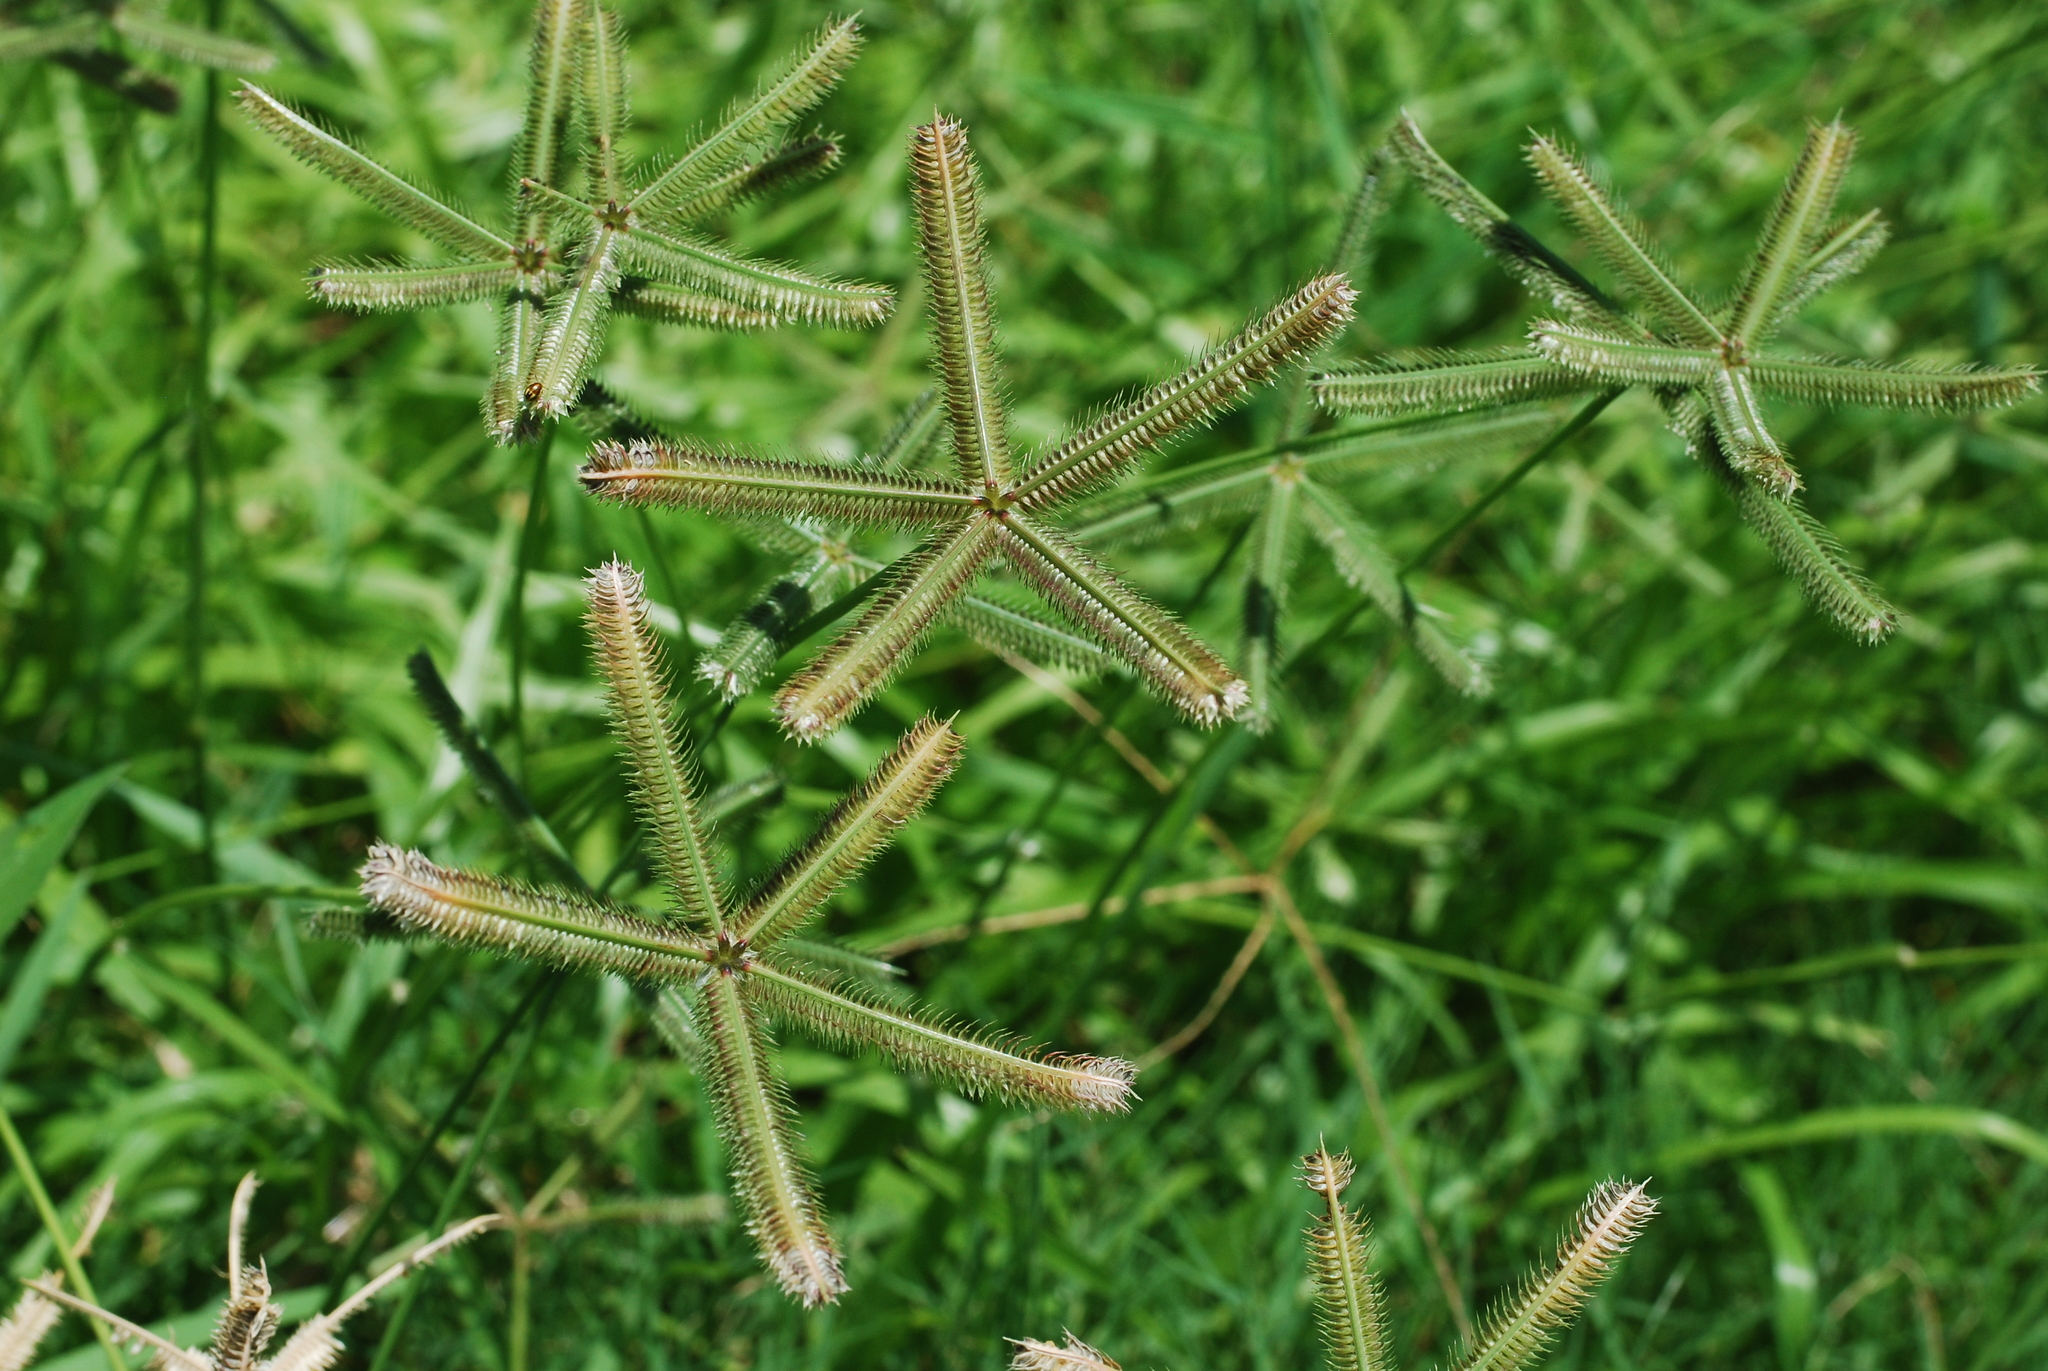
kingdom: Plantae
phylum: Tracheophyta
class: Liliopsida
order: Poales
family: Poaceae
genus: Dactyloctenium
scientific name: Dactyloctenium aegyptium
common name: Egyptian grass
